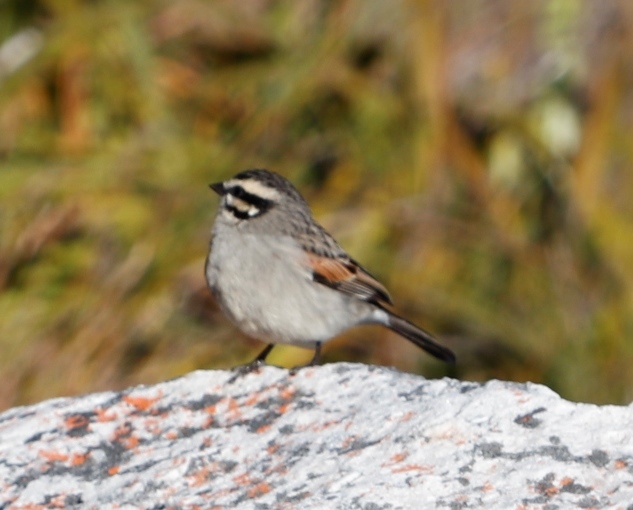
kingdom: Animalia
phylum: Chordata
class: Aves
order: Passeriformes
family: Emberizidae
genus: Emberiza
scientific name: Emberiza capensis
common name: Cape bunting
